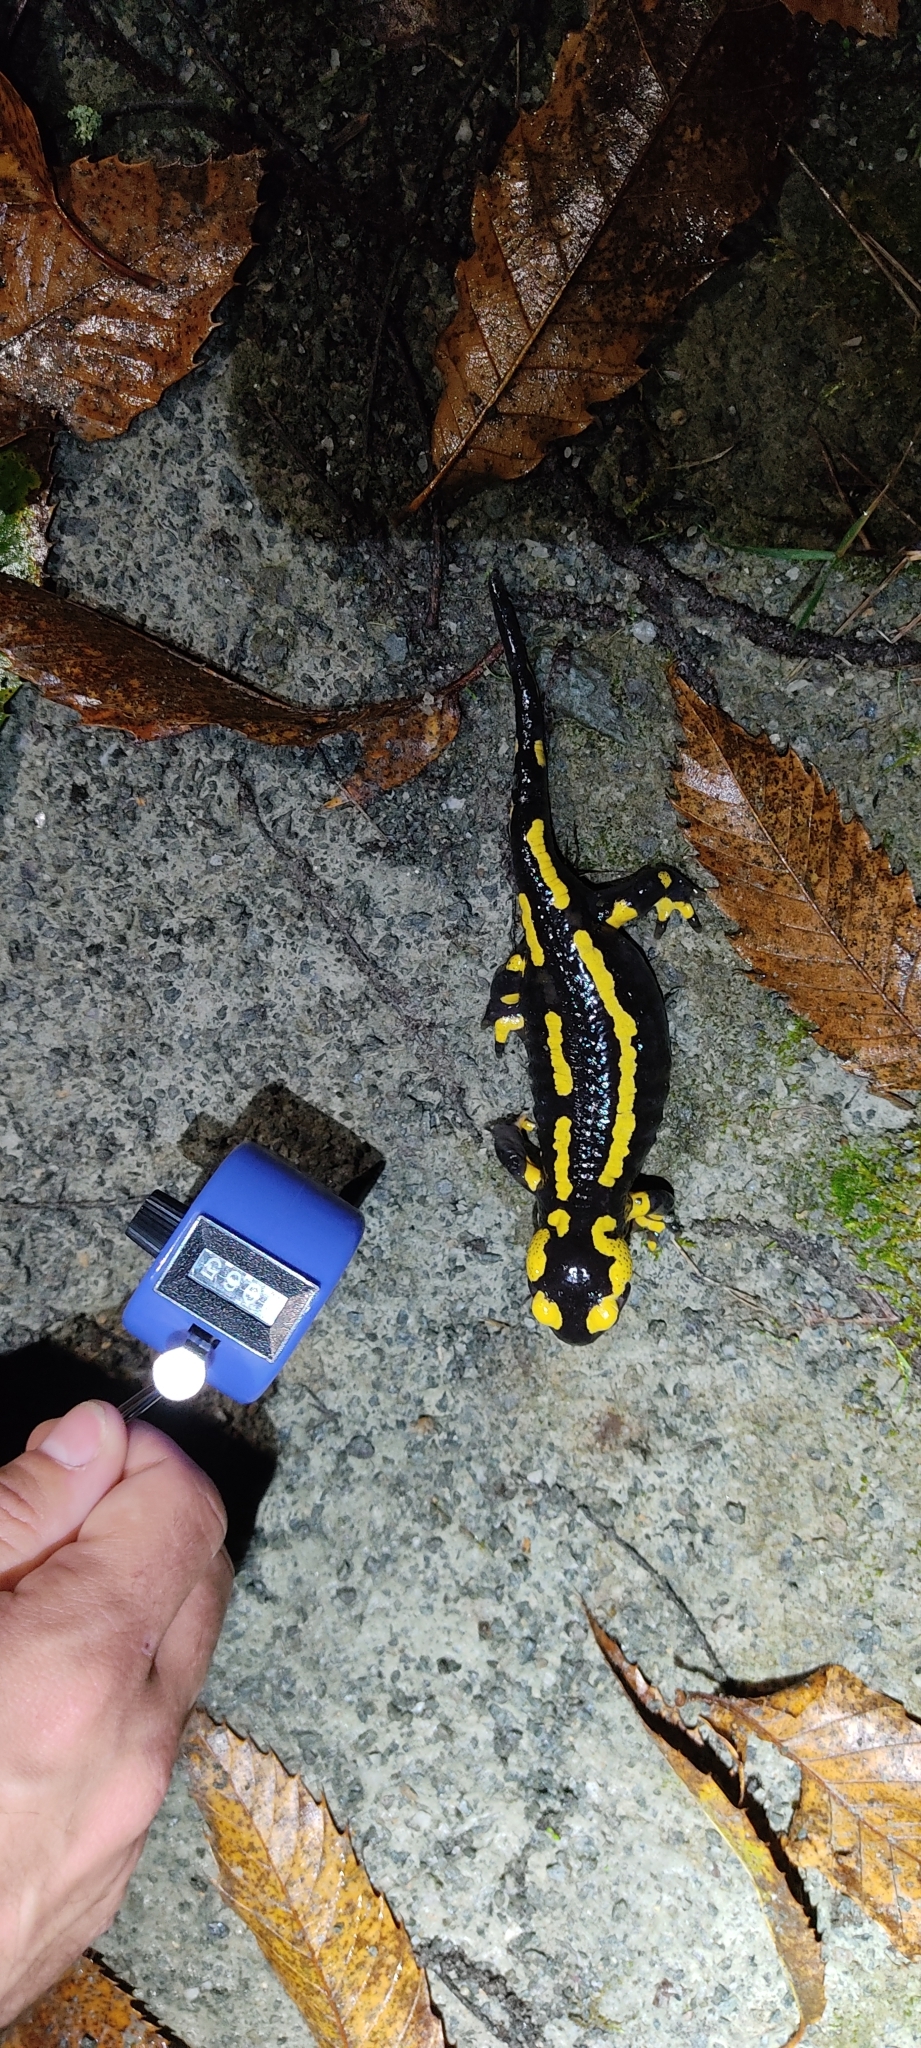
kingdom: Animalia
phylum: Chordata
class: Amphibia
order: Caudata
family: Salamandridae
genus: Salamandra
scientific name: Salamandra salamandra
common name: Fire salamander
